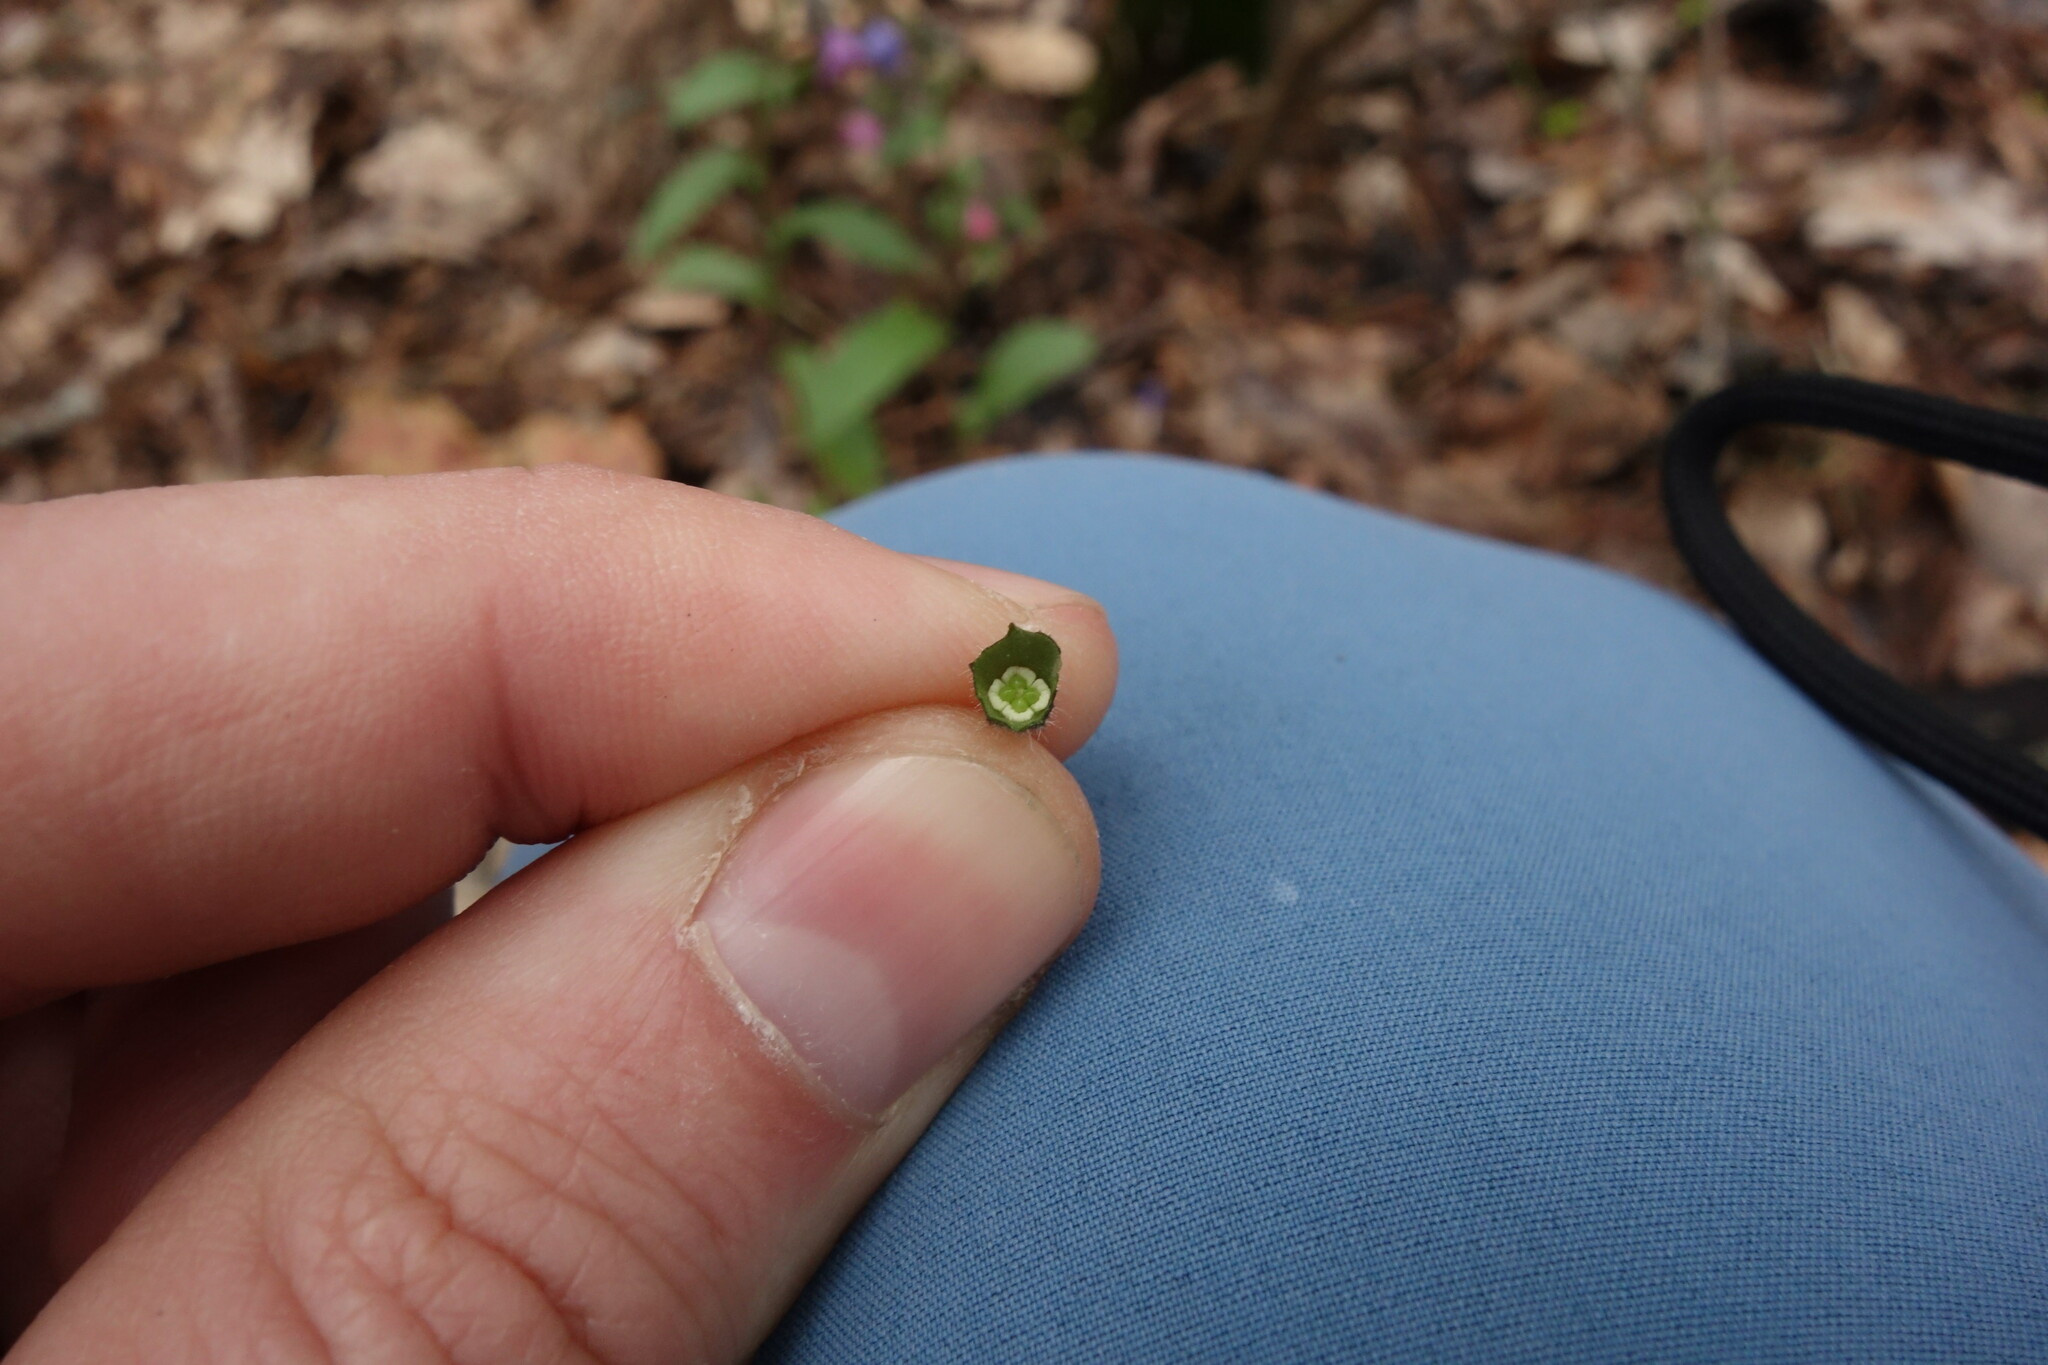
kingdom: Plantae
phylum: Tracheophyta
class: Magnoliopsida
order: Boraginales
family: Boraginaceae
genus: Pulmonaria
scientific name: Pulmonaria notha
